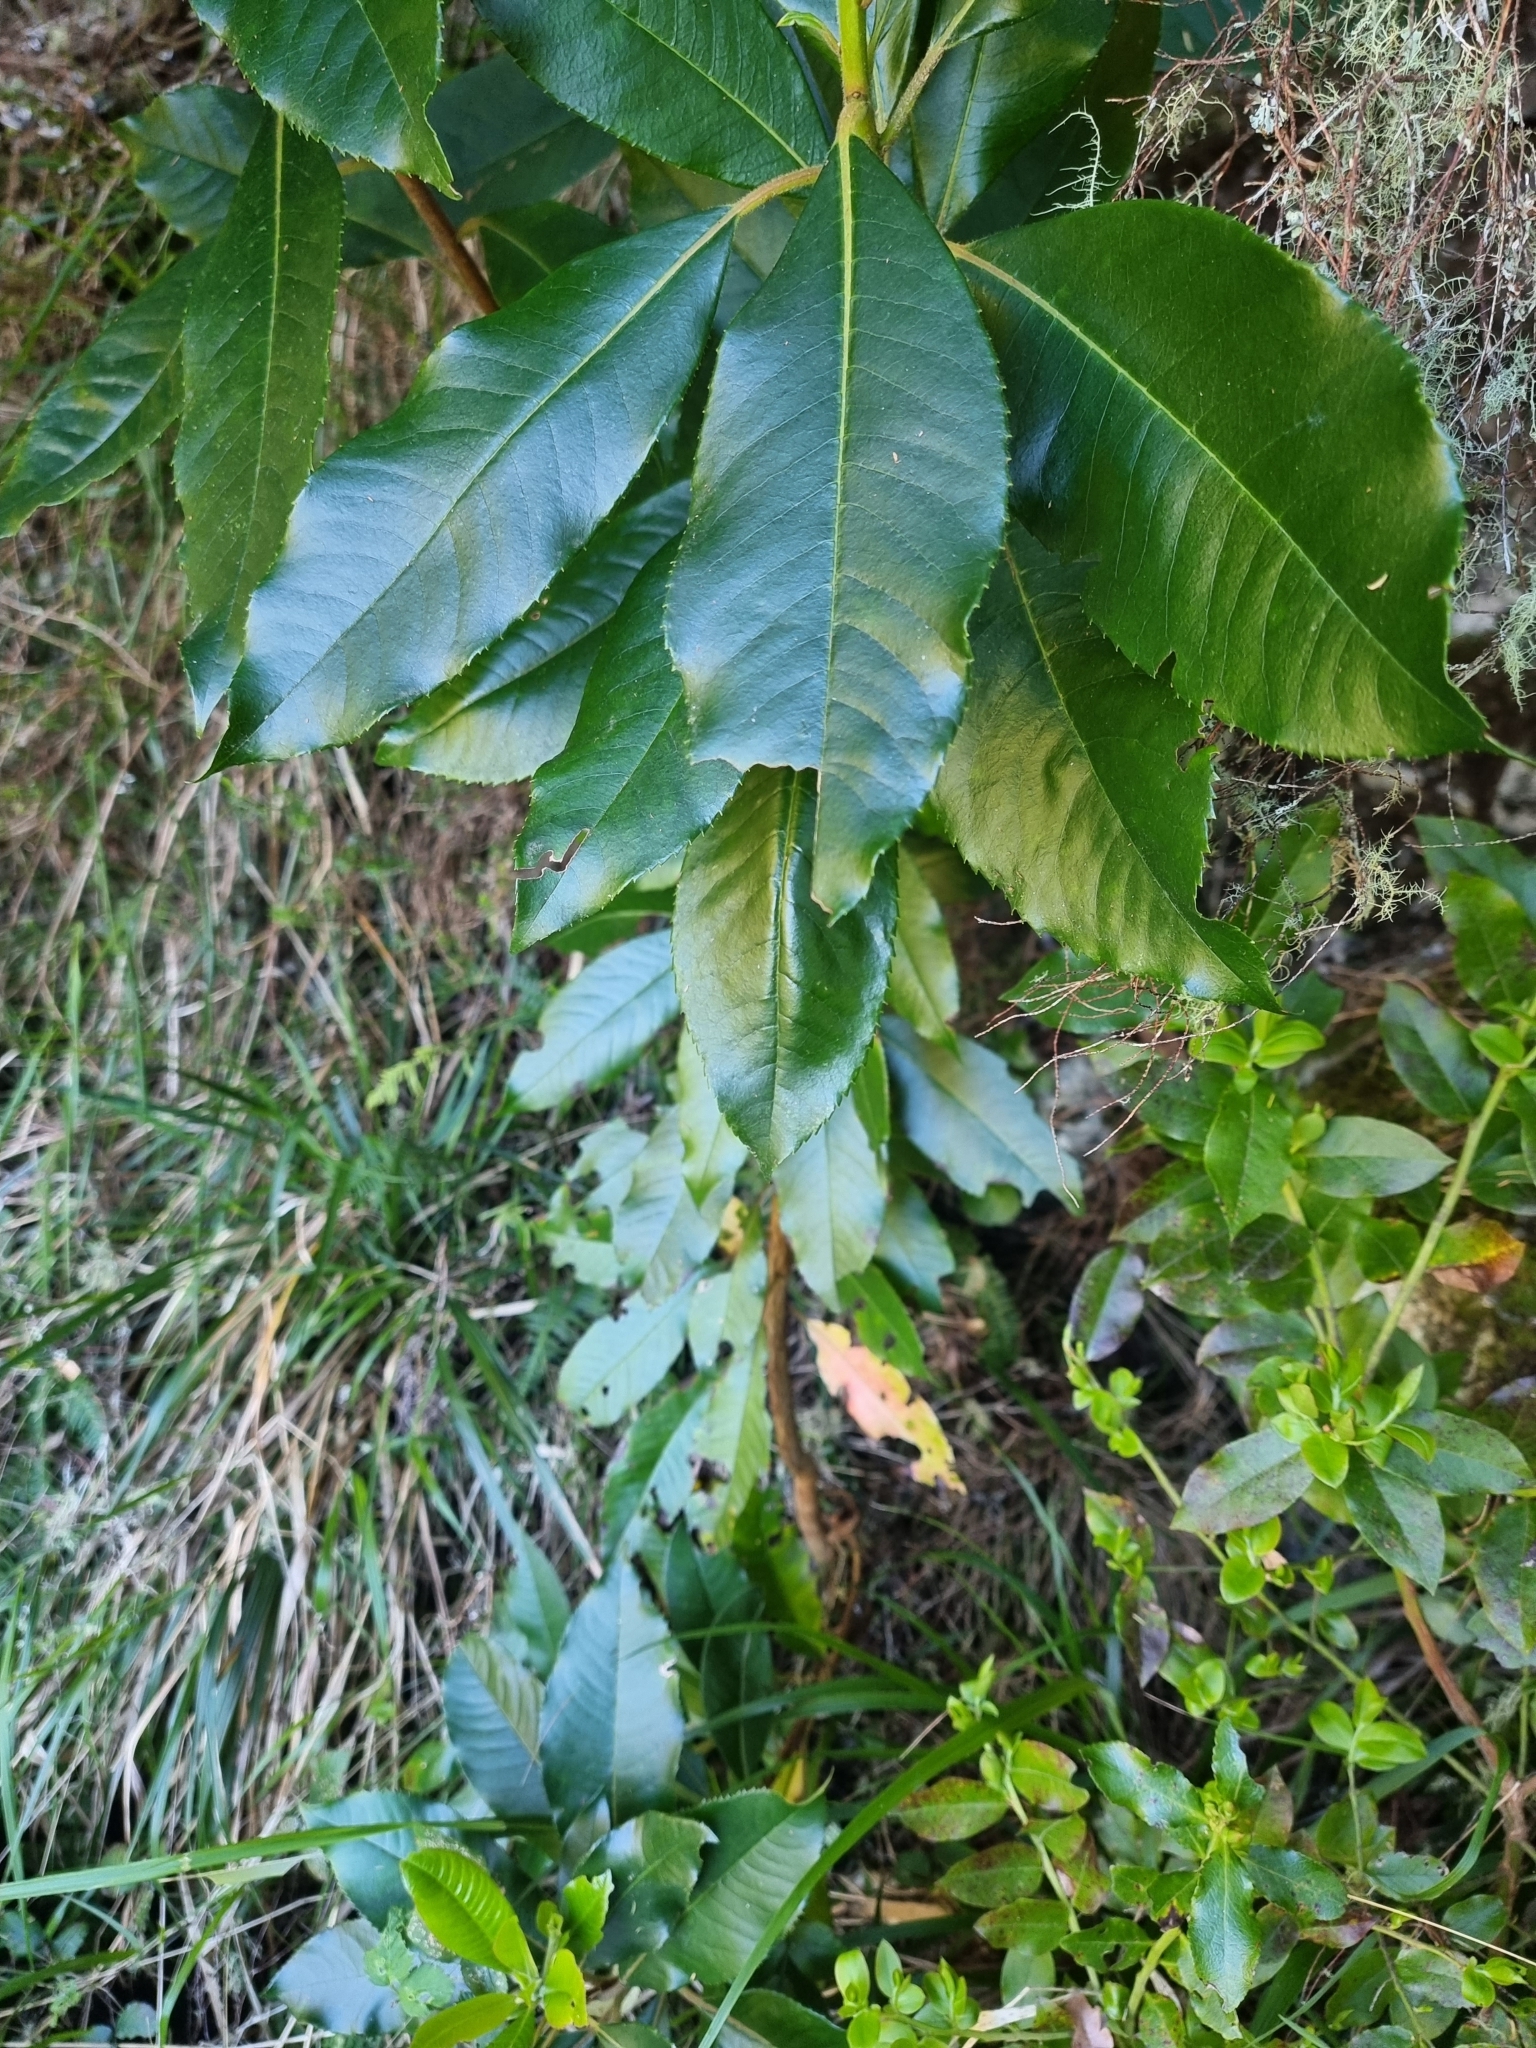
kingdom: Plantae
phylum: Tracheophyta
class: Magnoliopsida
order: Ericales
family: Clethraceae
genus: Clethra
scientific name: Clethra arborea
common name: Lily-of-the-valley-tree
